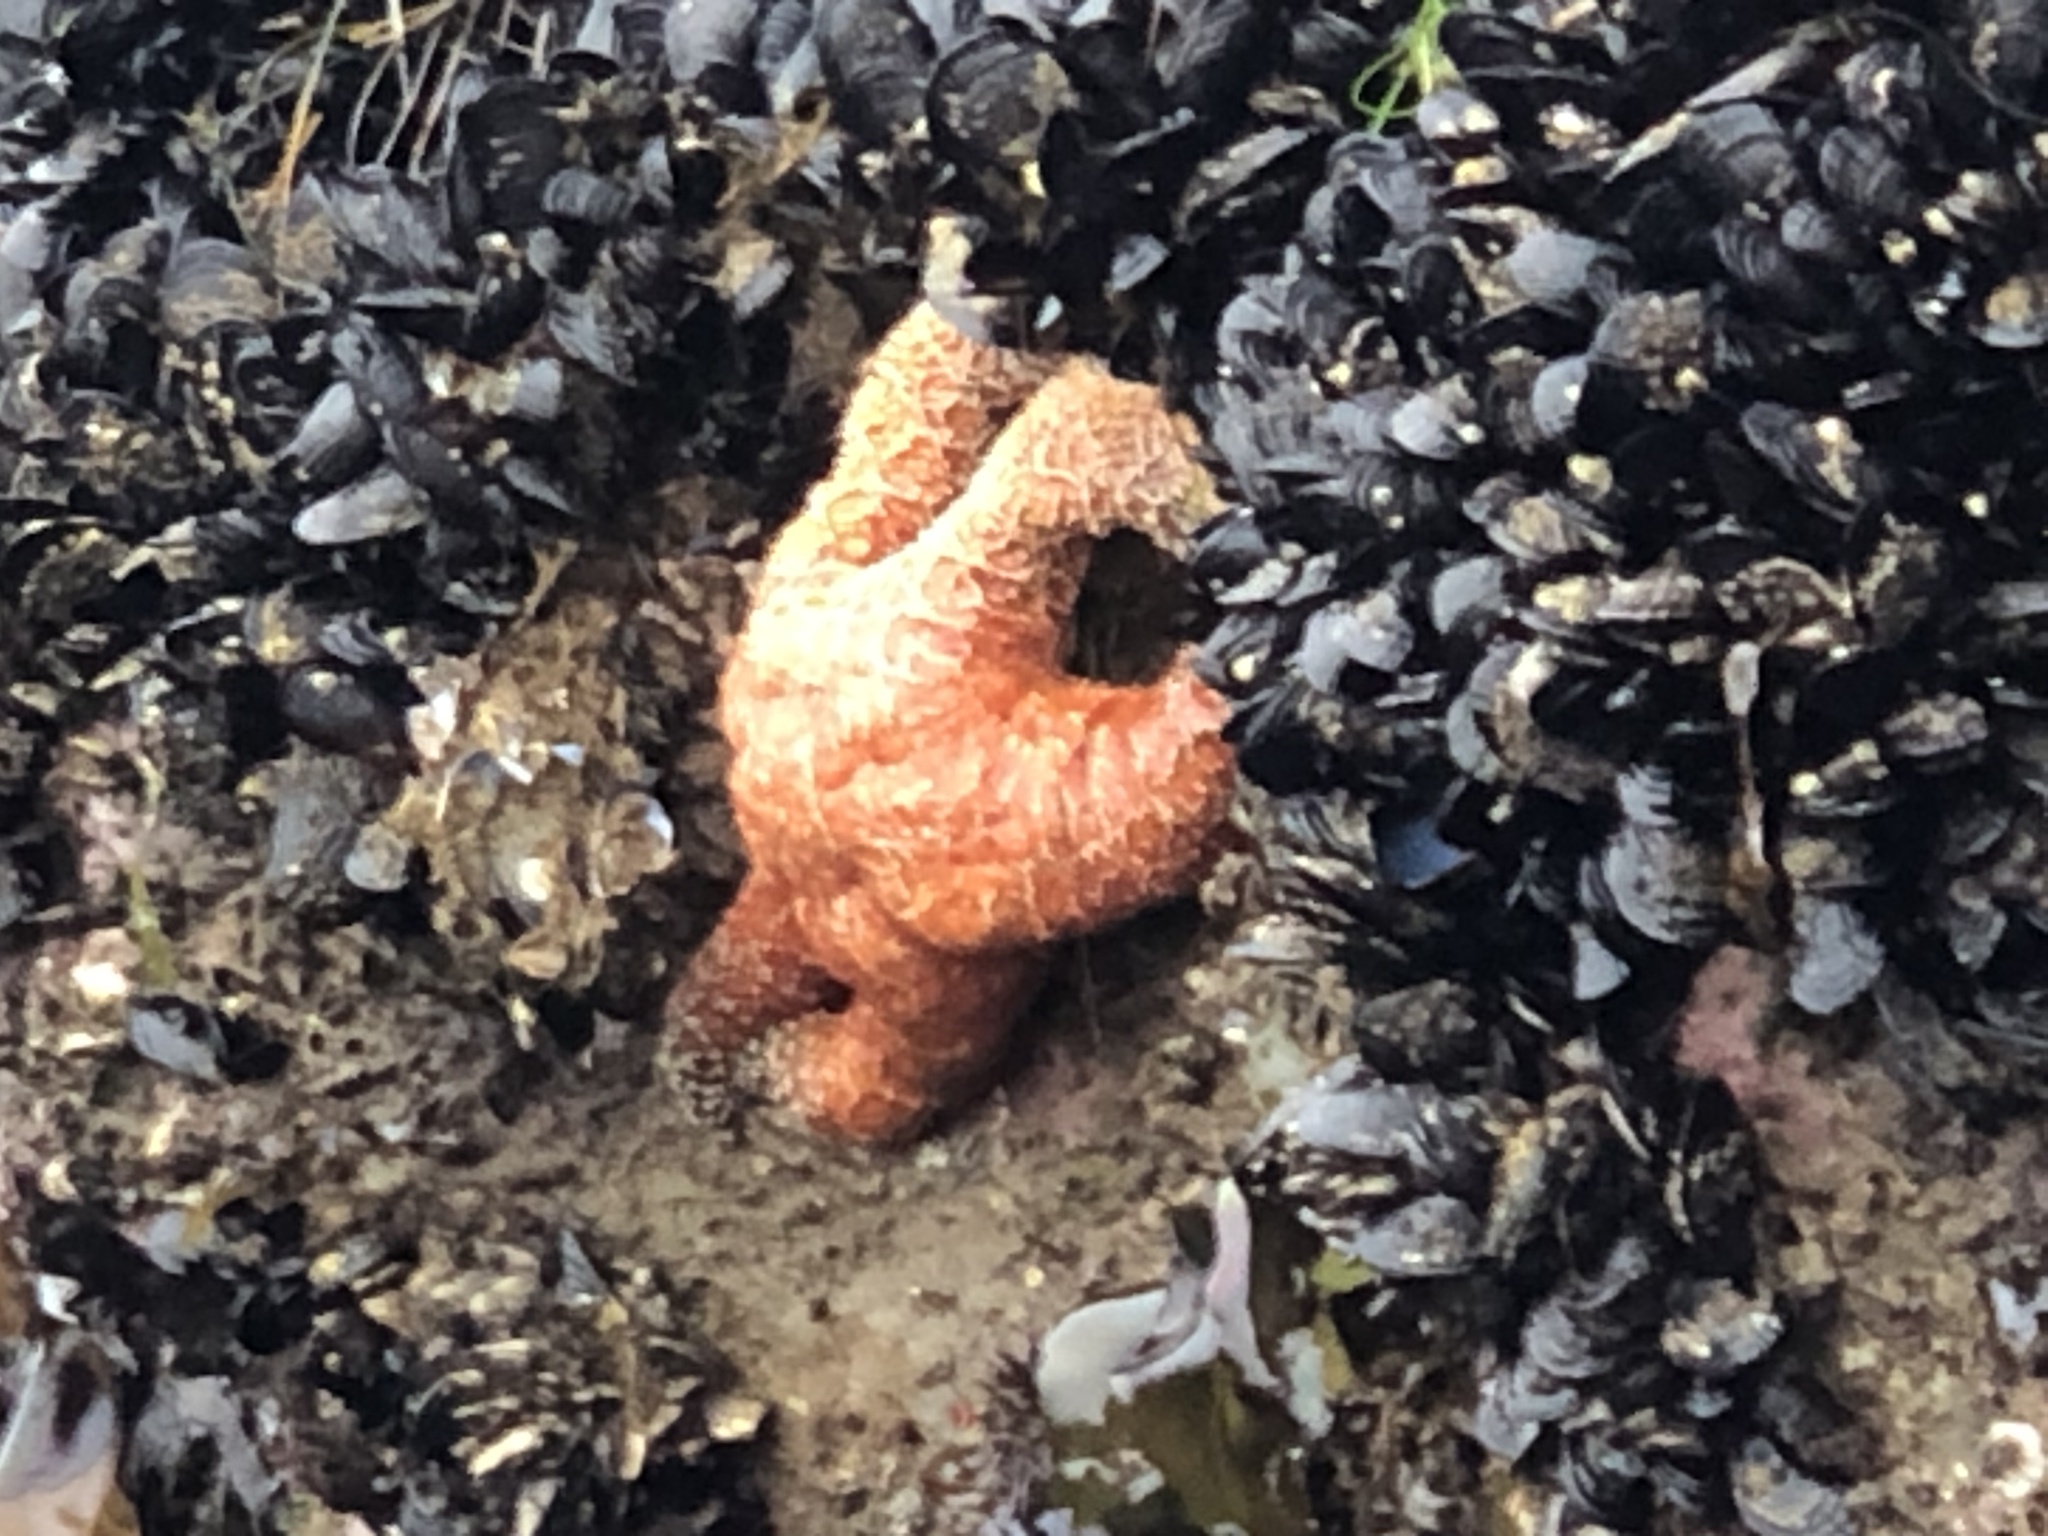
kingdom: Animalia
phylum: Echinodermata
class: Asteroidea
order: Forcipulatida
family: Asteriidae
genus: Pisaster
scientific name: Pisaster ochraceus
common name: Ochre stars
